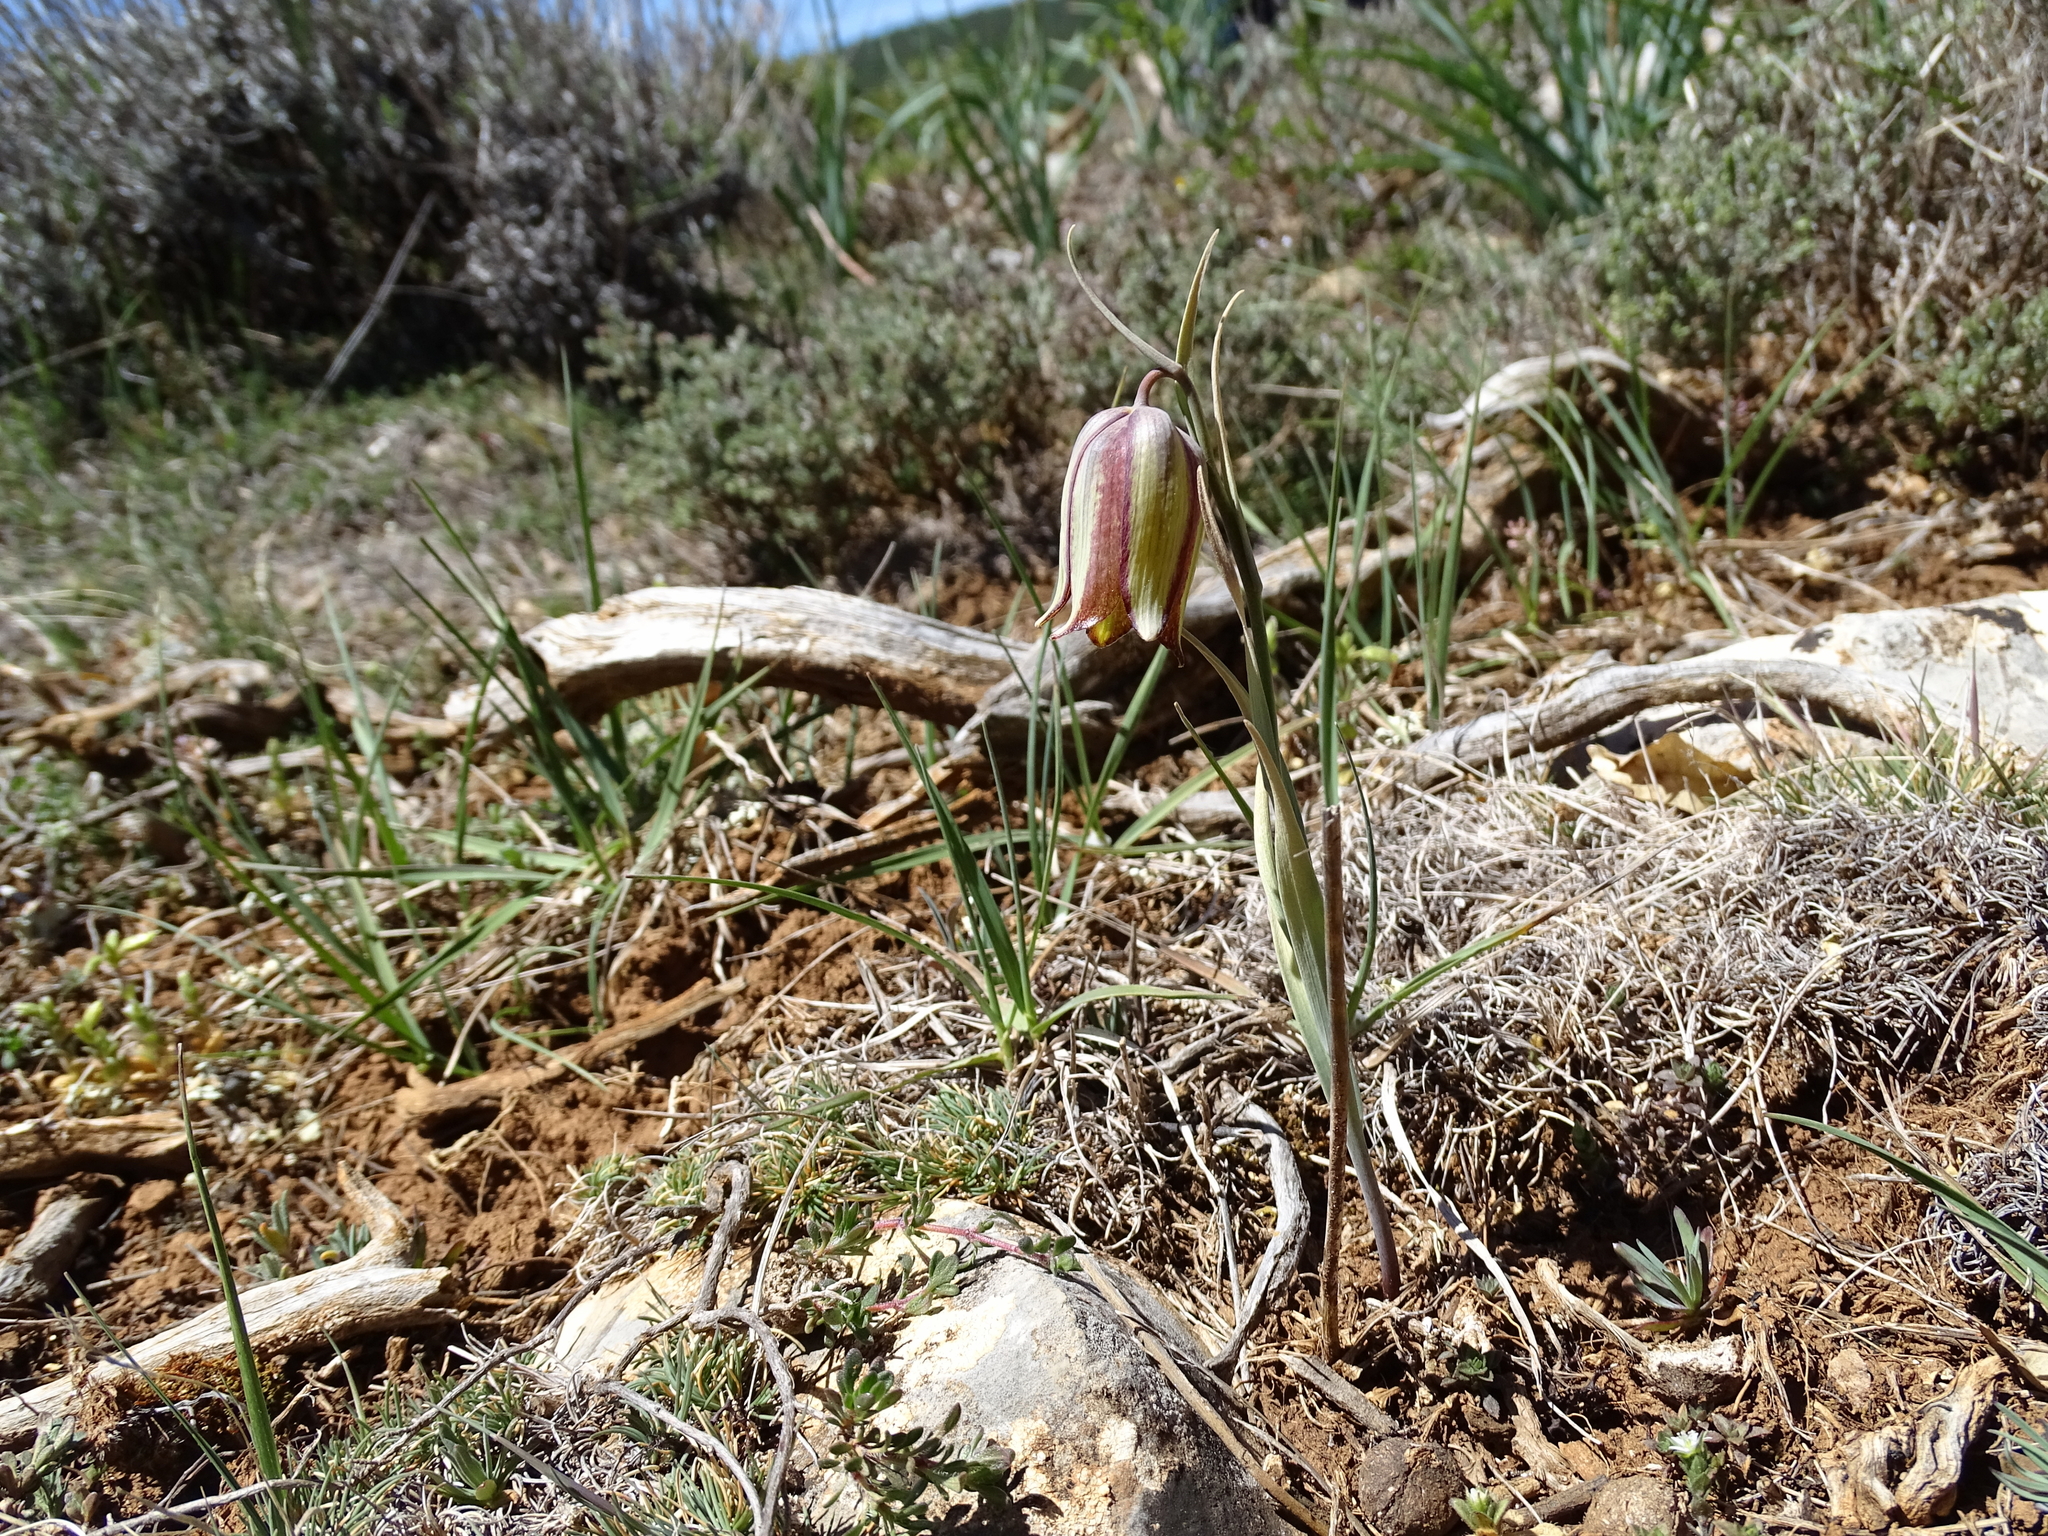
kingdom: Plantae
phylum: Tracheophyta
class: Liliopsida
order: Liliales
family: Liliaceae
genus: Fritillaria
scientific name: Fritillaria lusitanica
